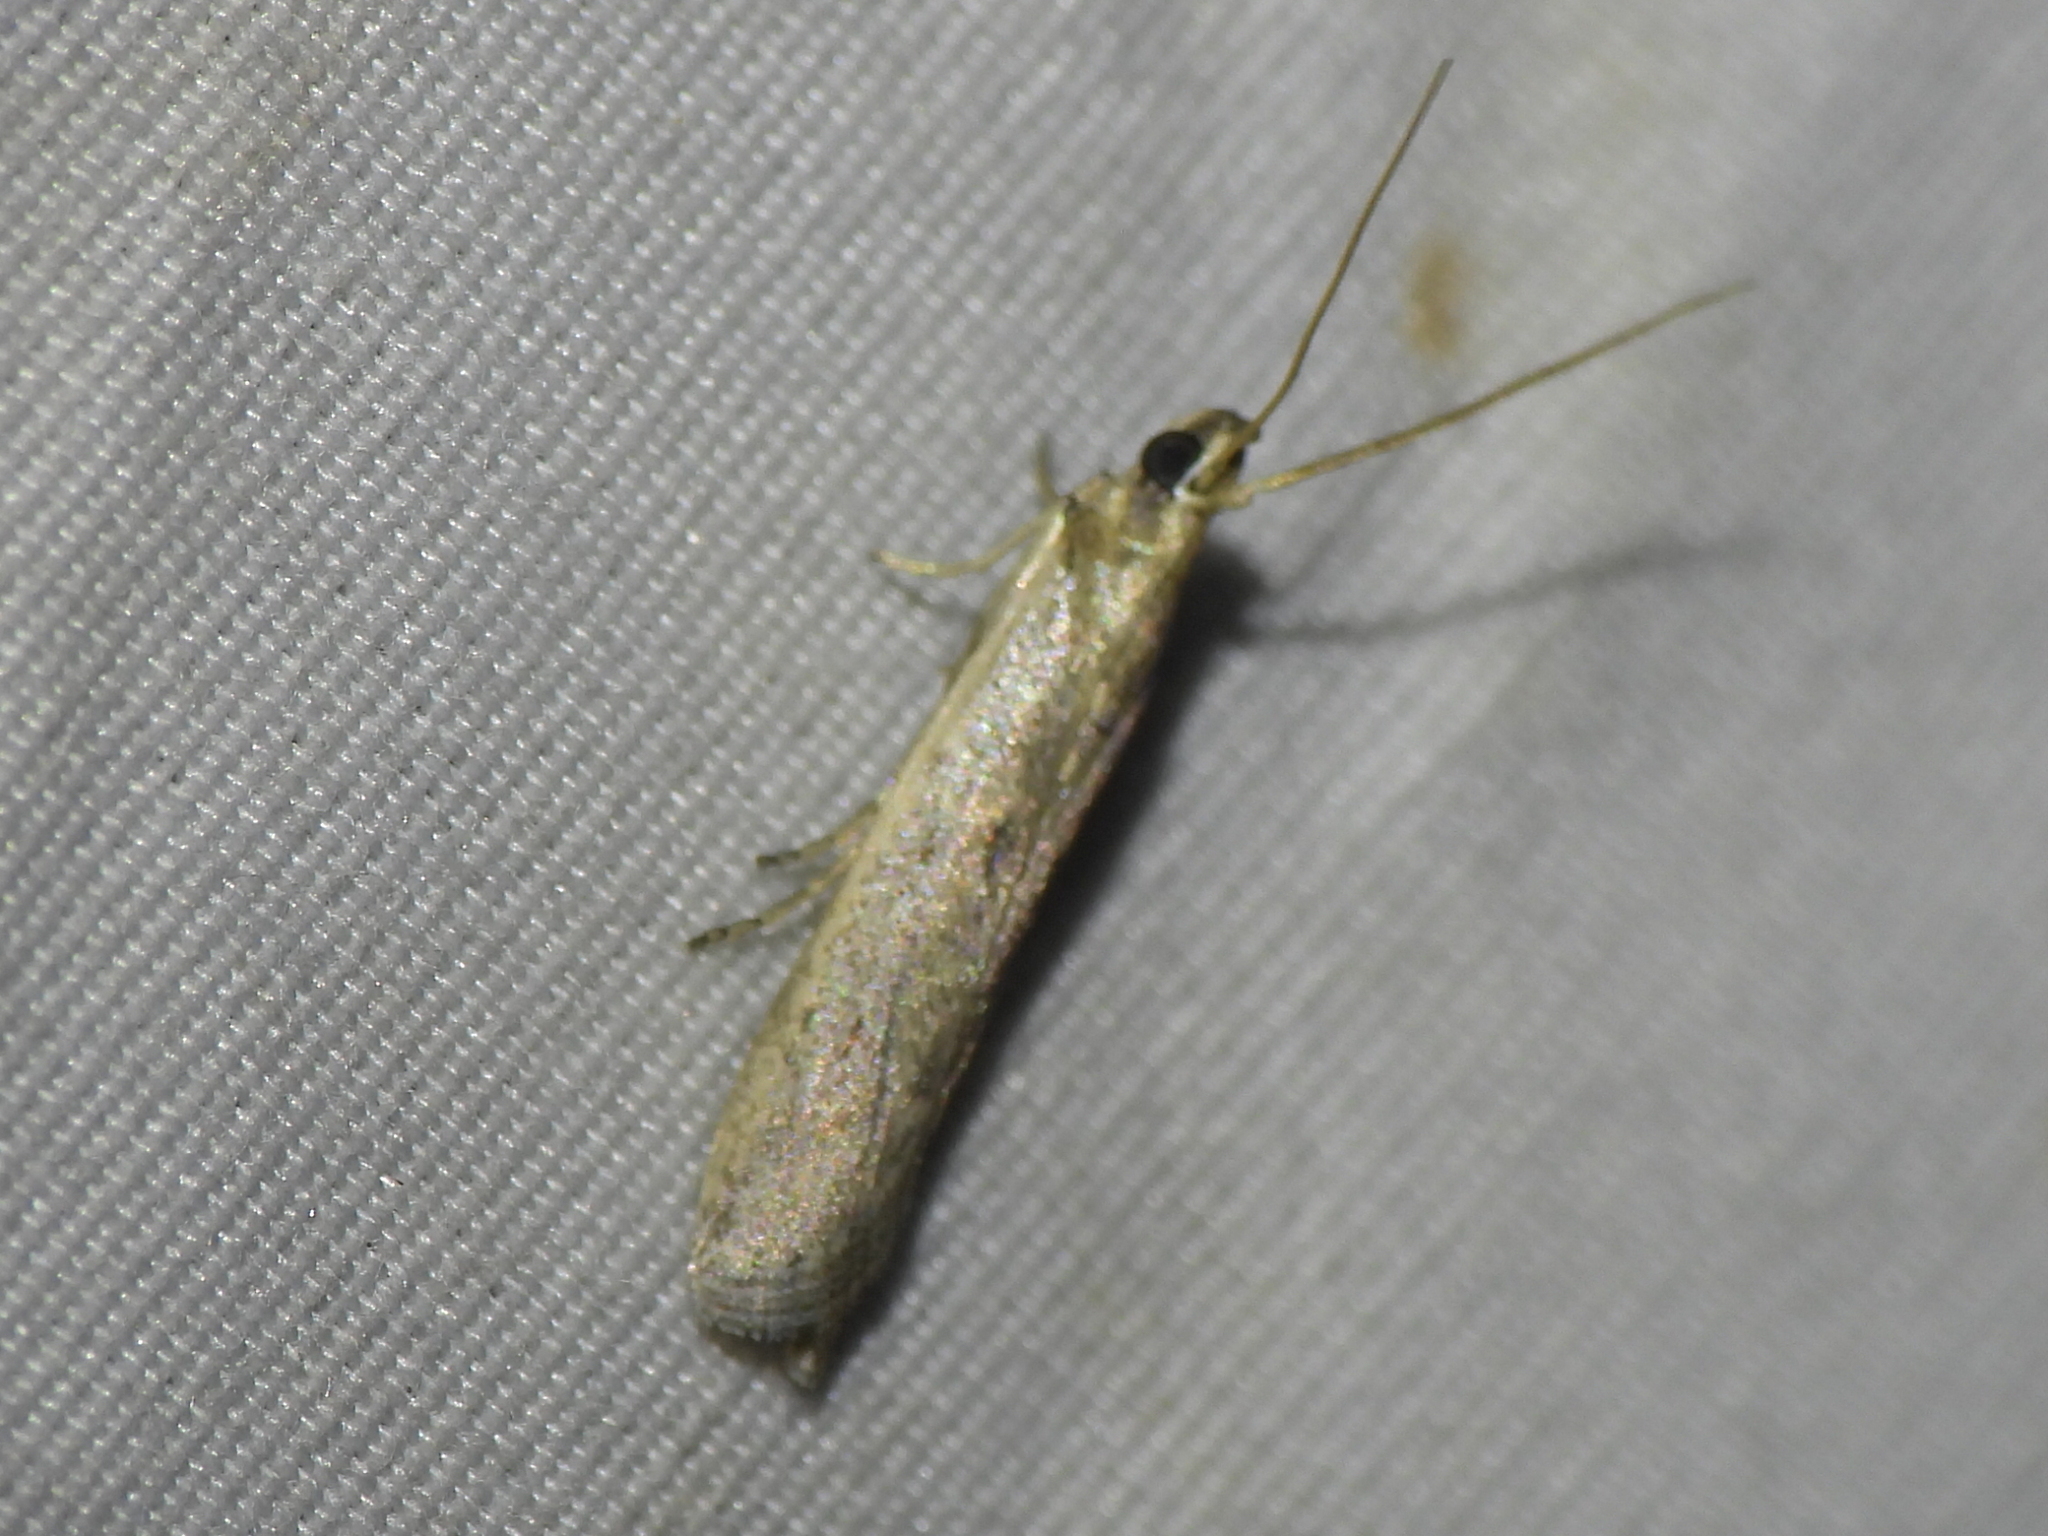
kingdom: Animalia
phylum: Arthropoda
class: Insecta
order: Lepidoptera
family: Pyralidae
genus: Homoeosoma
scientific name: Homoeosoma electella
